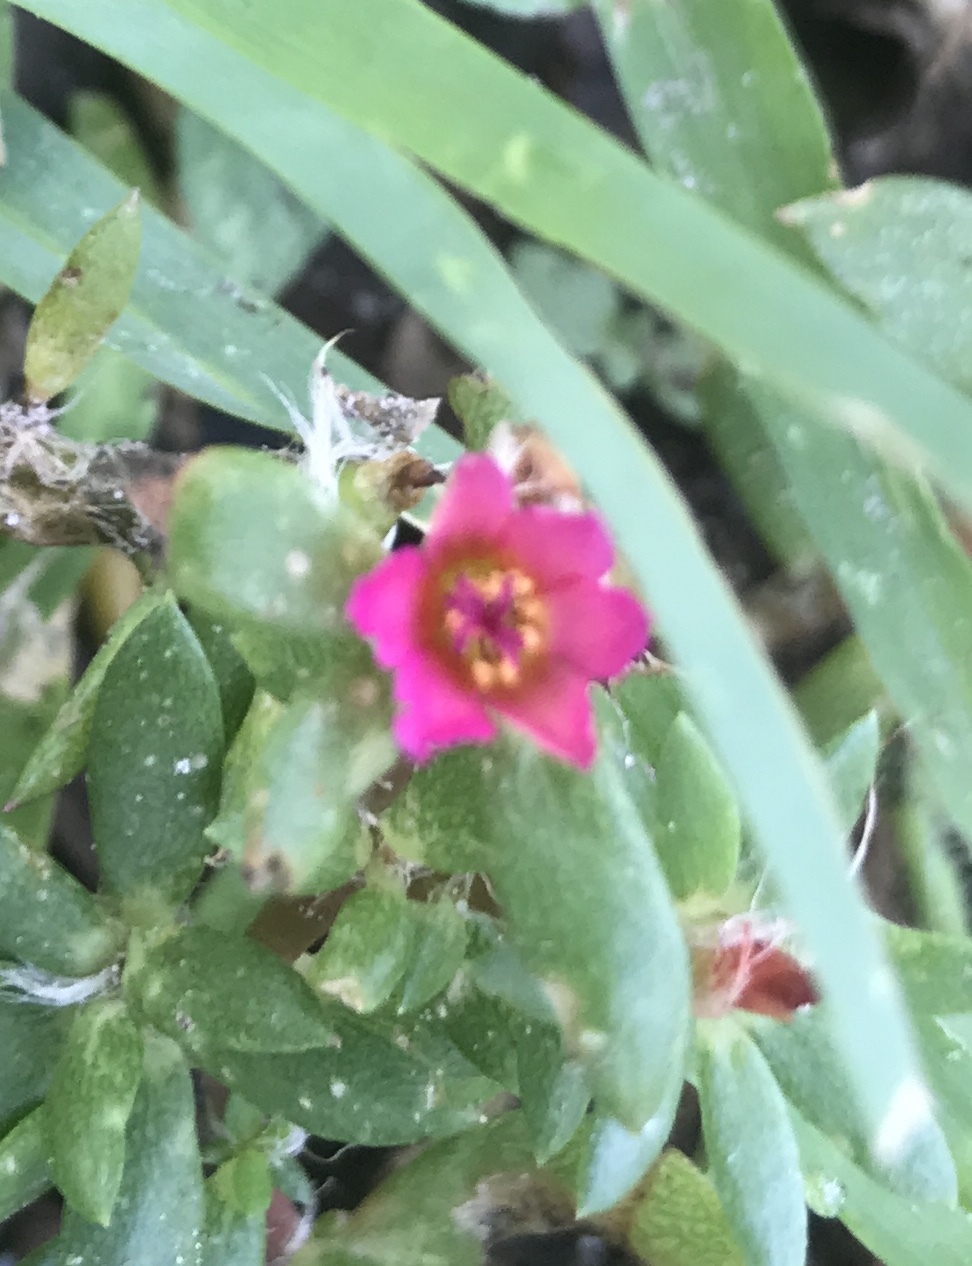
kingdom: Plantae
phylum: Tracheophyta
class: Magnoliopsida
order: Caryophyllales
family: Portulacaceae
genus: Portulaca
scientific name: Portulaca amilis
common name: Paraguayan purslane
